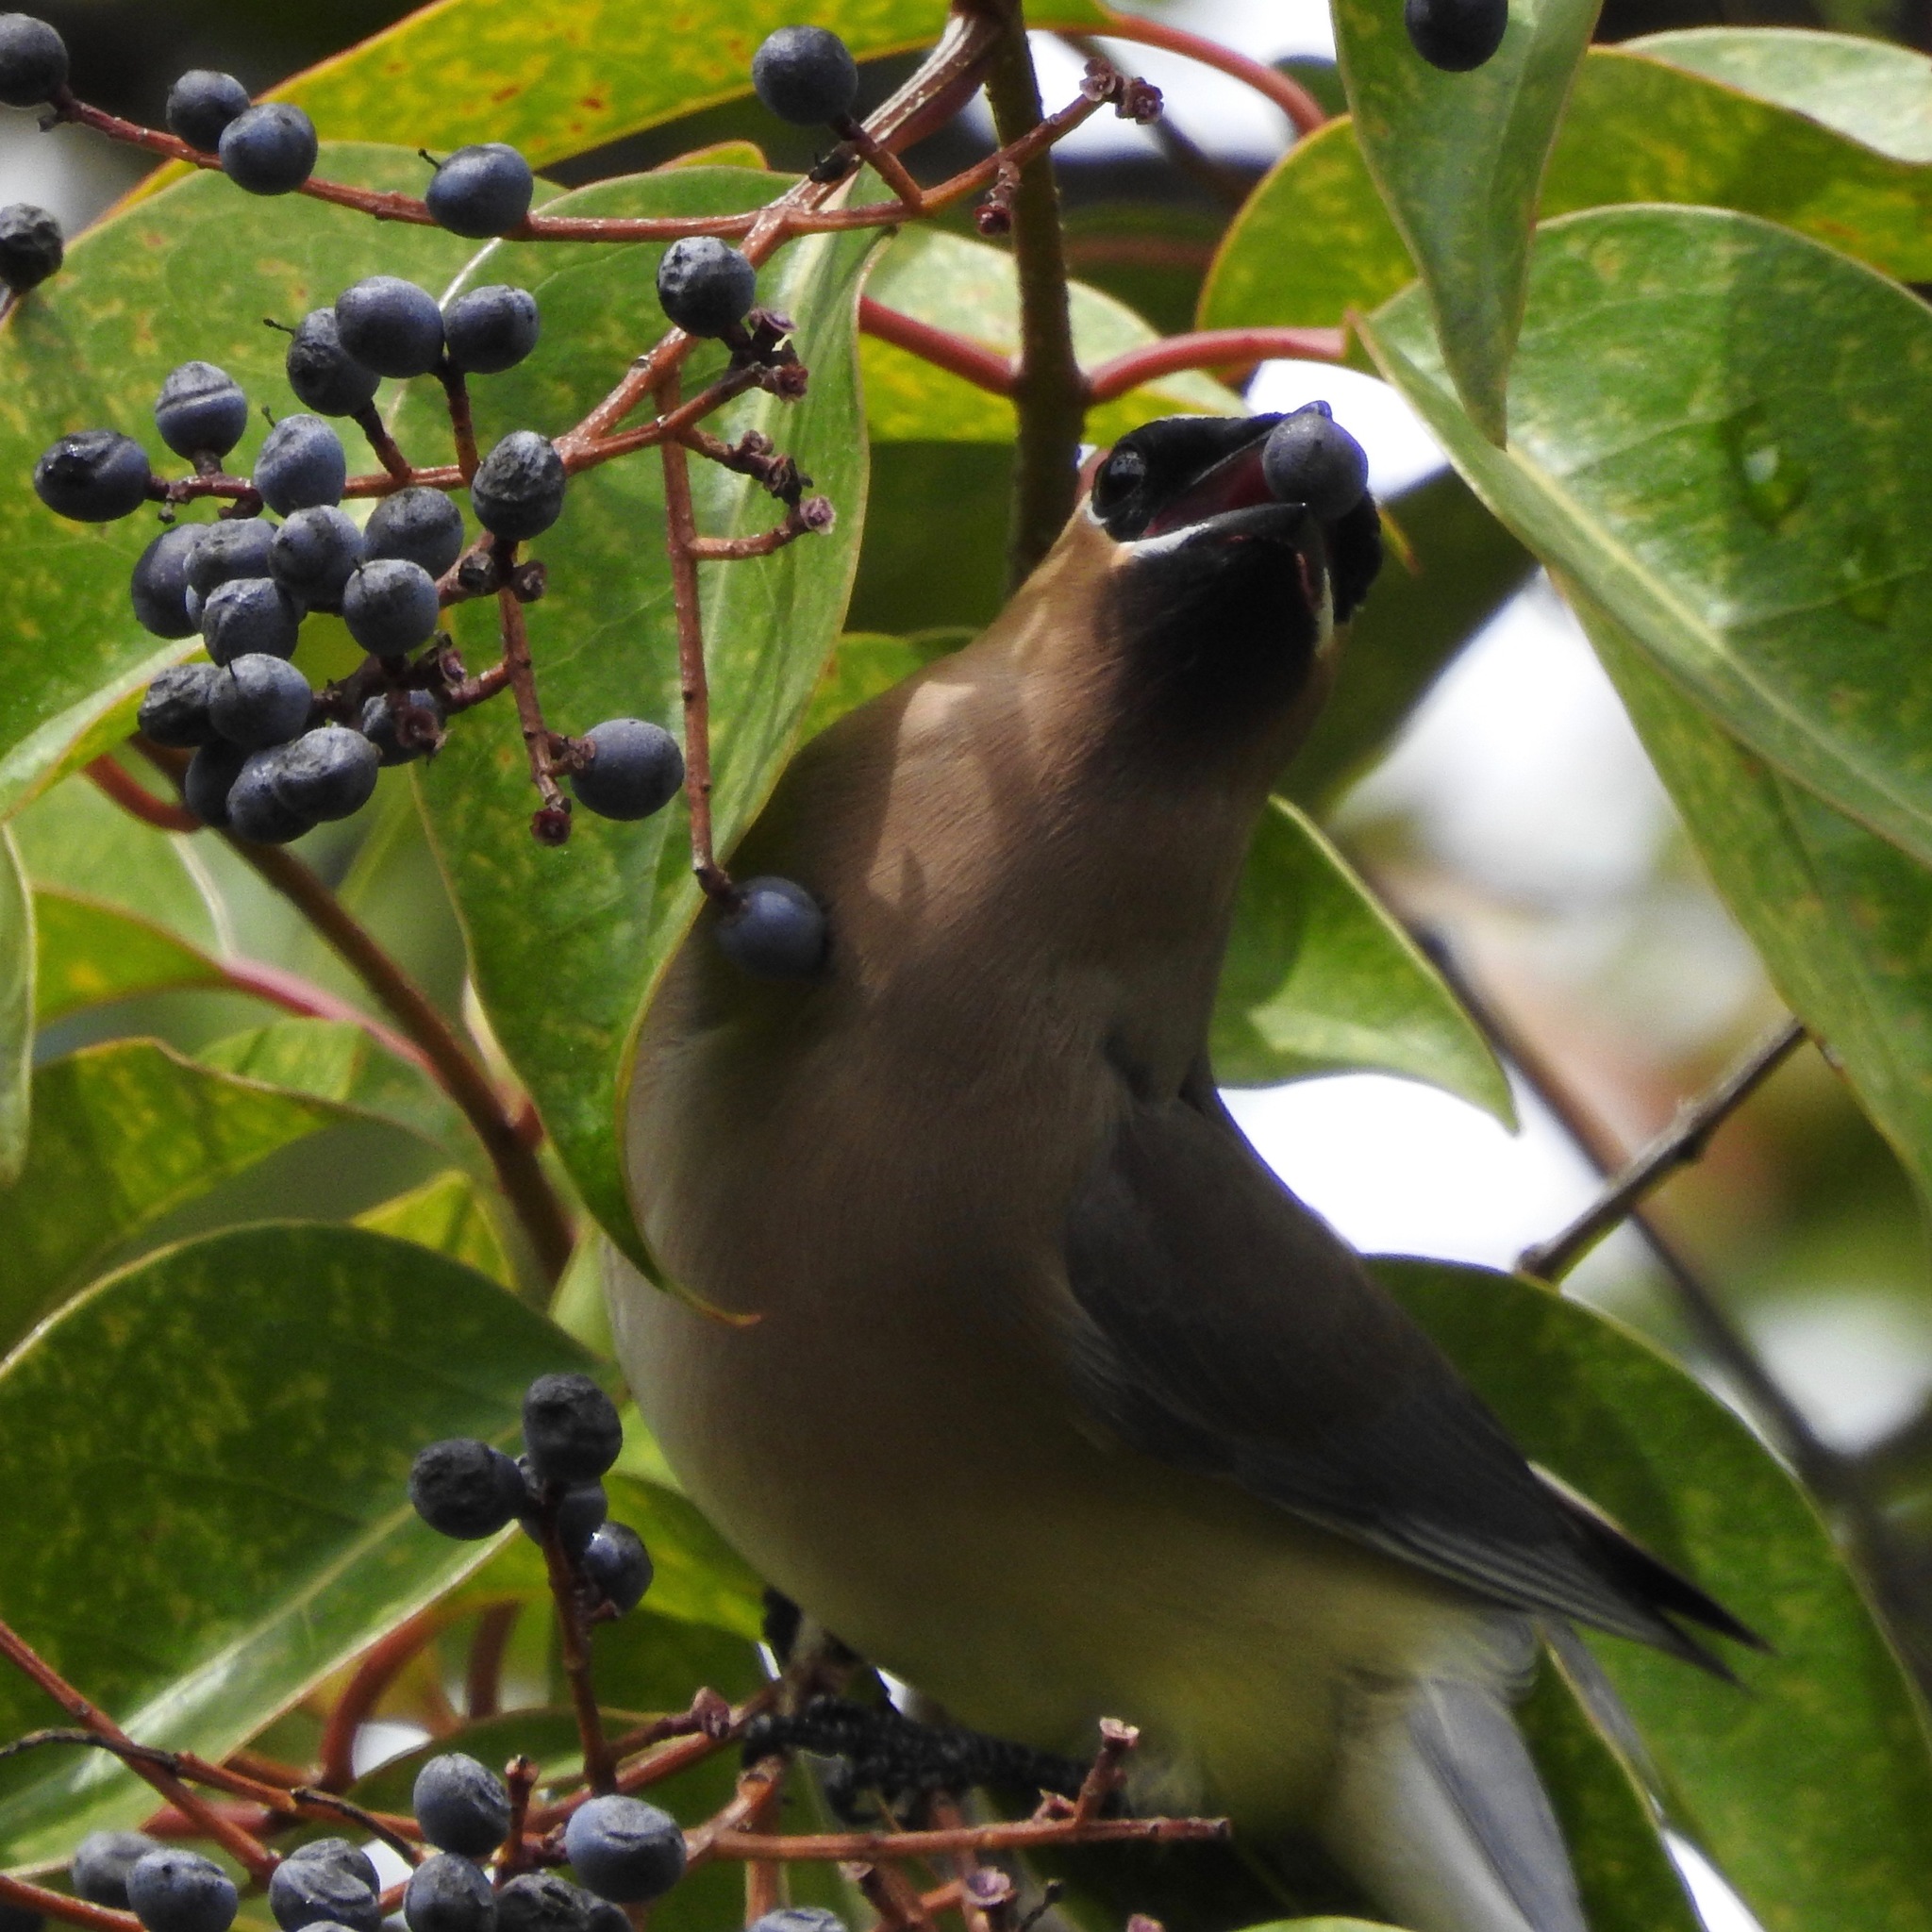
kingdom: Animalia
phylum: Chordata
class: Aves
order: Passeriformes
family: Bombycillidae
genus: Bombycilla
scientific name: Bombycilla cedrorum
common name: Cedar waxwing
